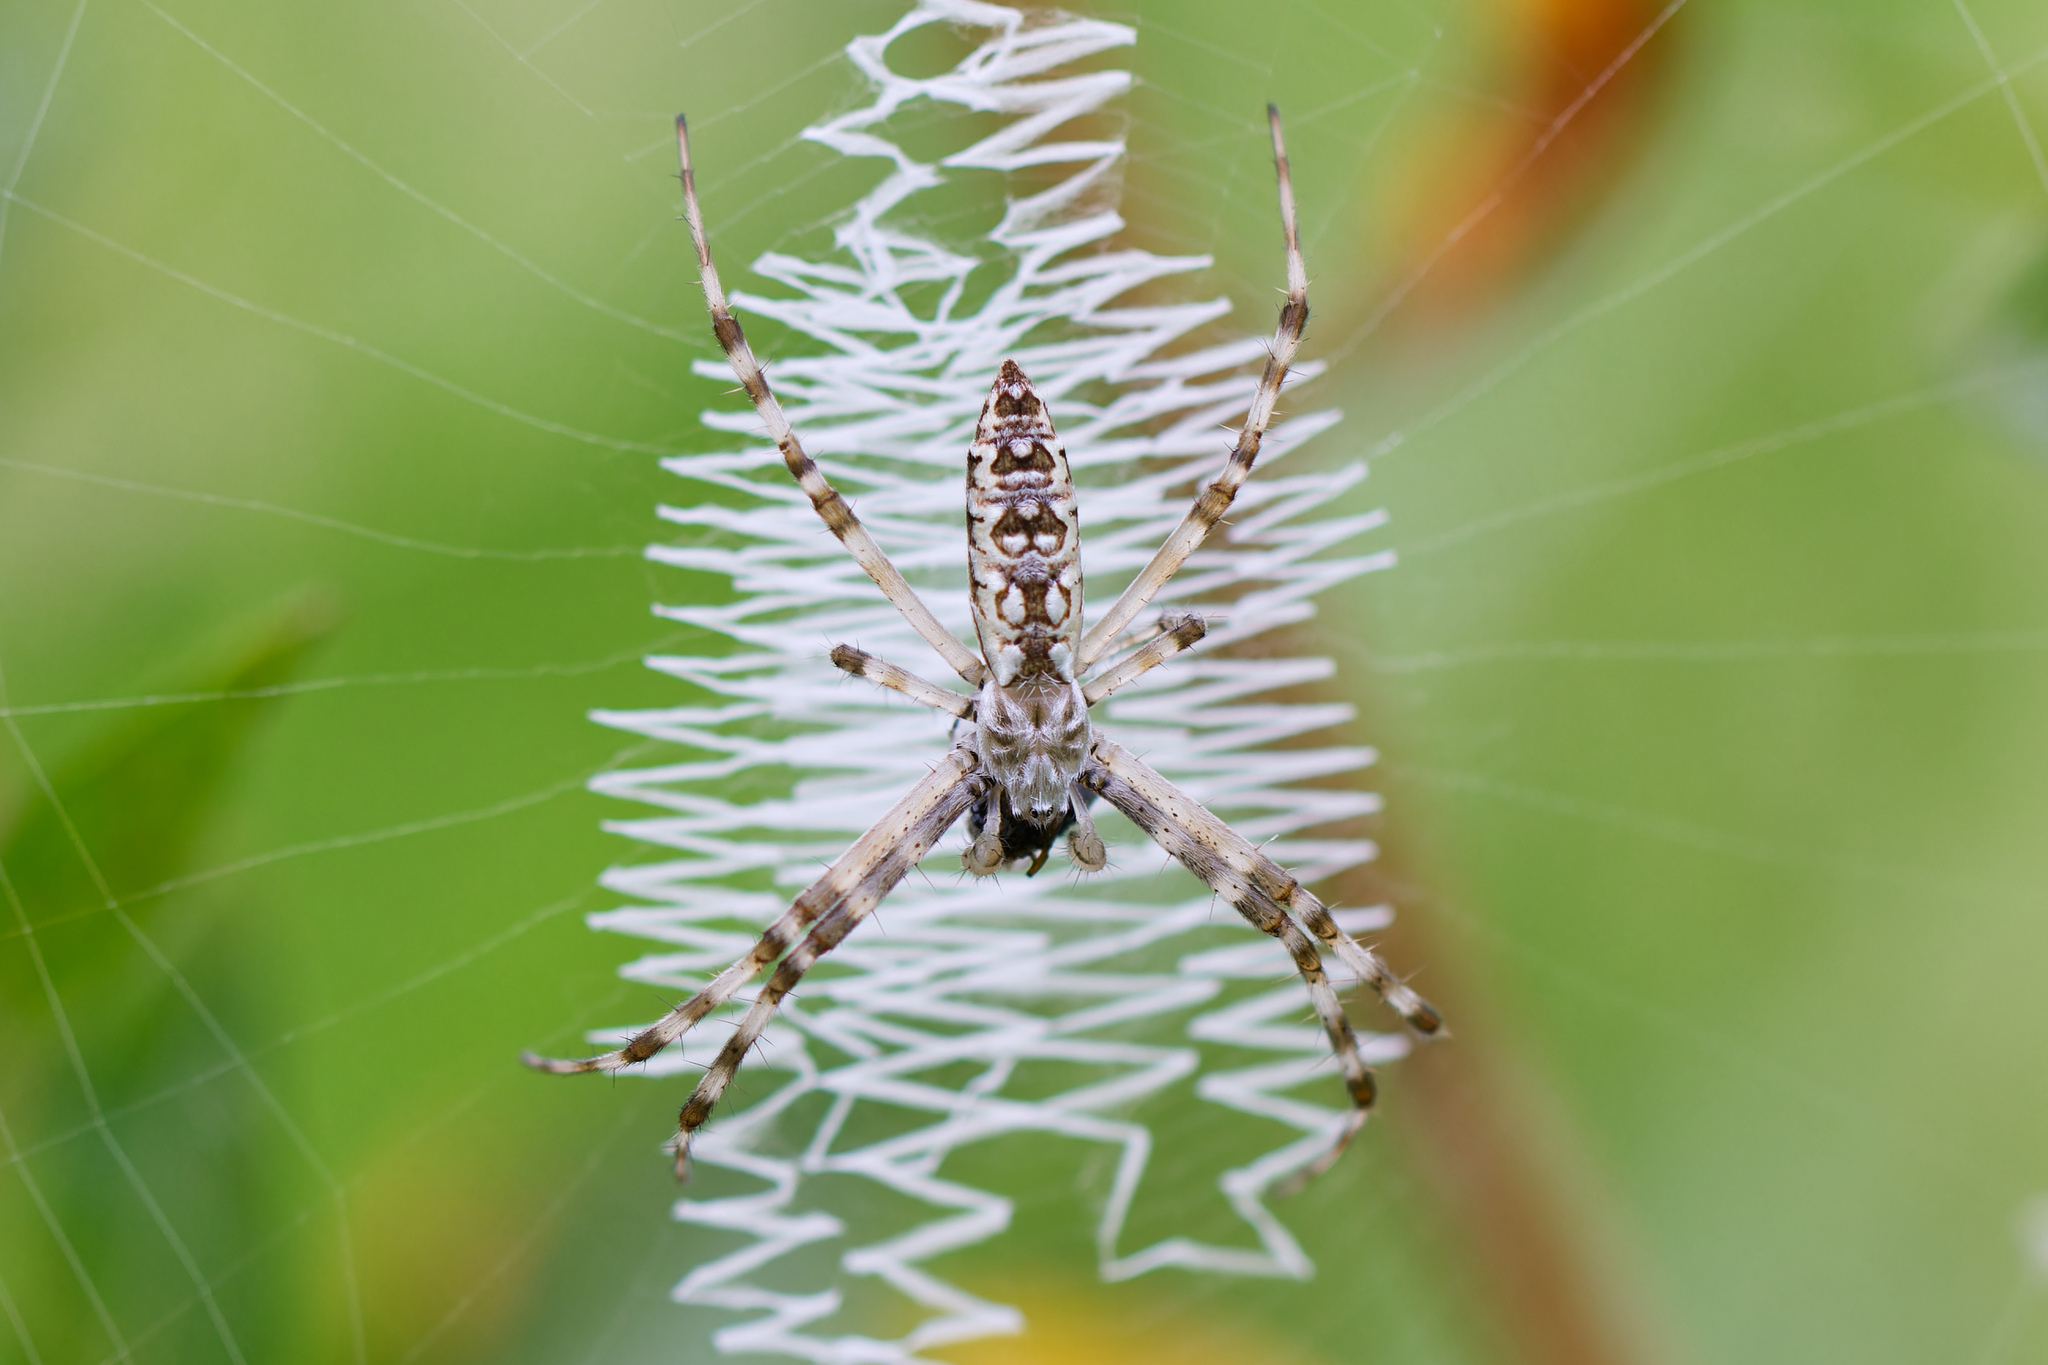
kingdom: Animalia
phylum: Arthropoda
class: Arachnida
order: Araneae
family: Araneidae
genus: Argiope
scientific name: Argiope aurantia
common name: Orb weavers
